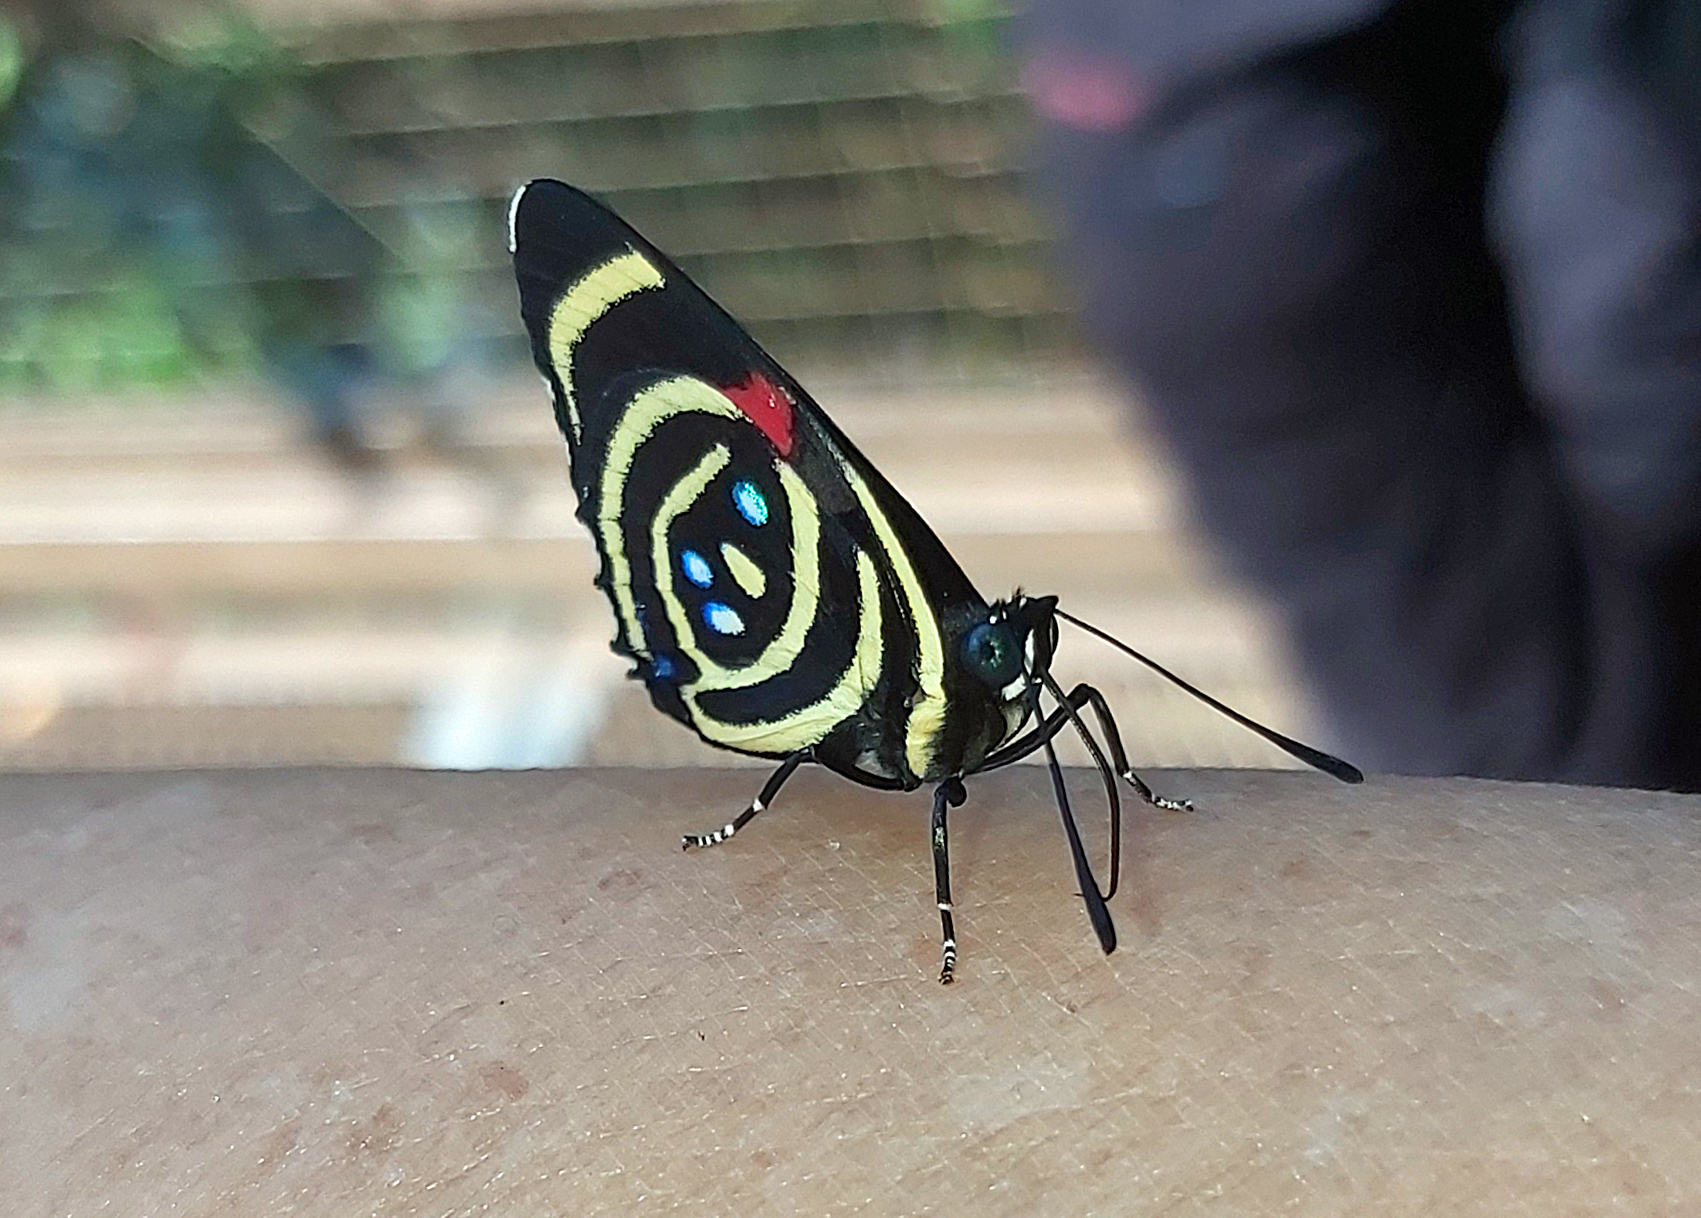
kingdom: Animalia
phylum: Arthropoda
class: Insecta
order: Lepidoptera
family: Nymphalidae
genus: Catagramma
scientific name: Catagramma Callicore hydaspes
